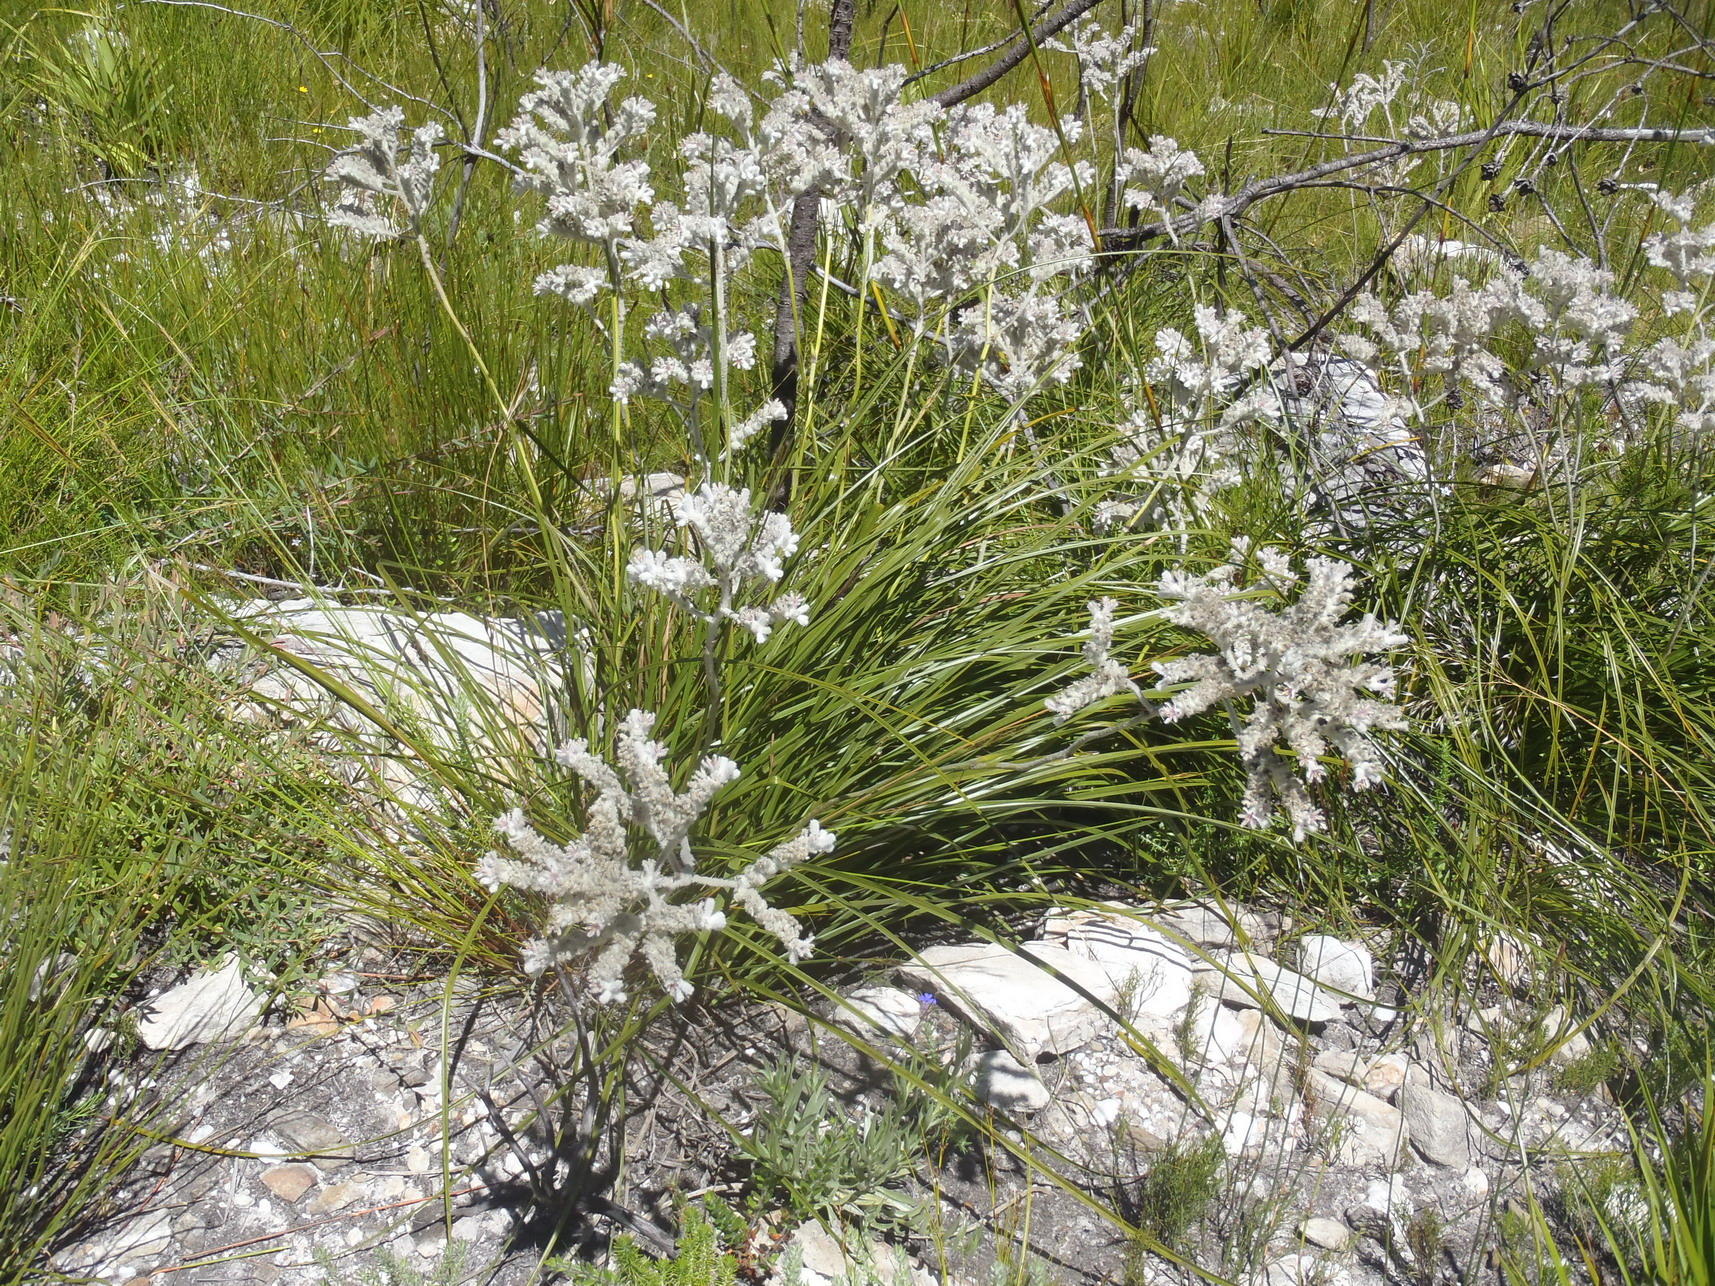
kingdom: Plantae
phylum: Tracheophyta
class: Liliopsida
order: Asparagales
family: Lanariaceae
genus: Lanaria
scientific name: Lanaria lanata
